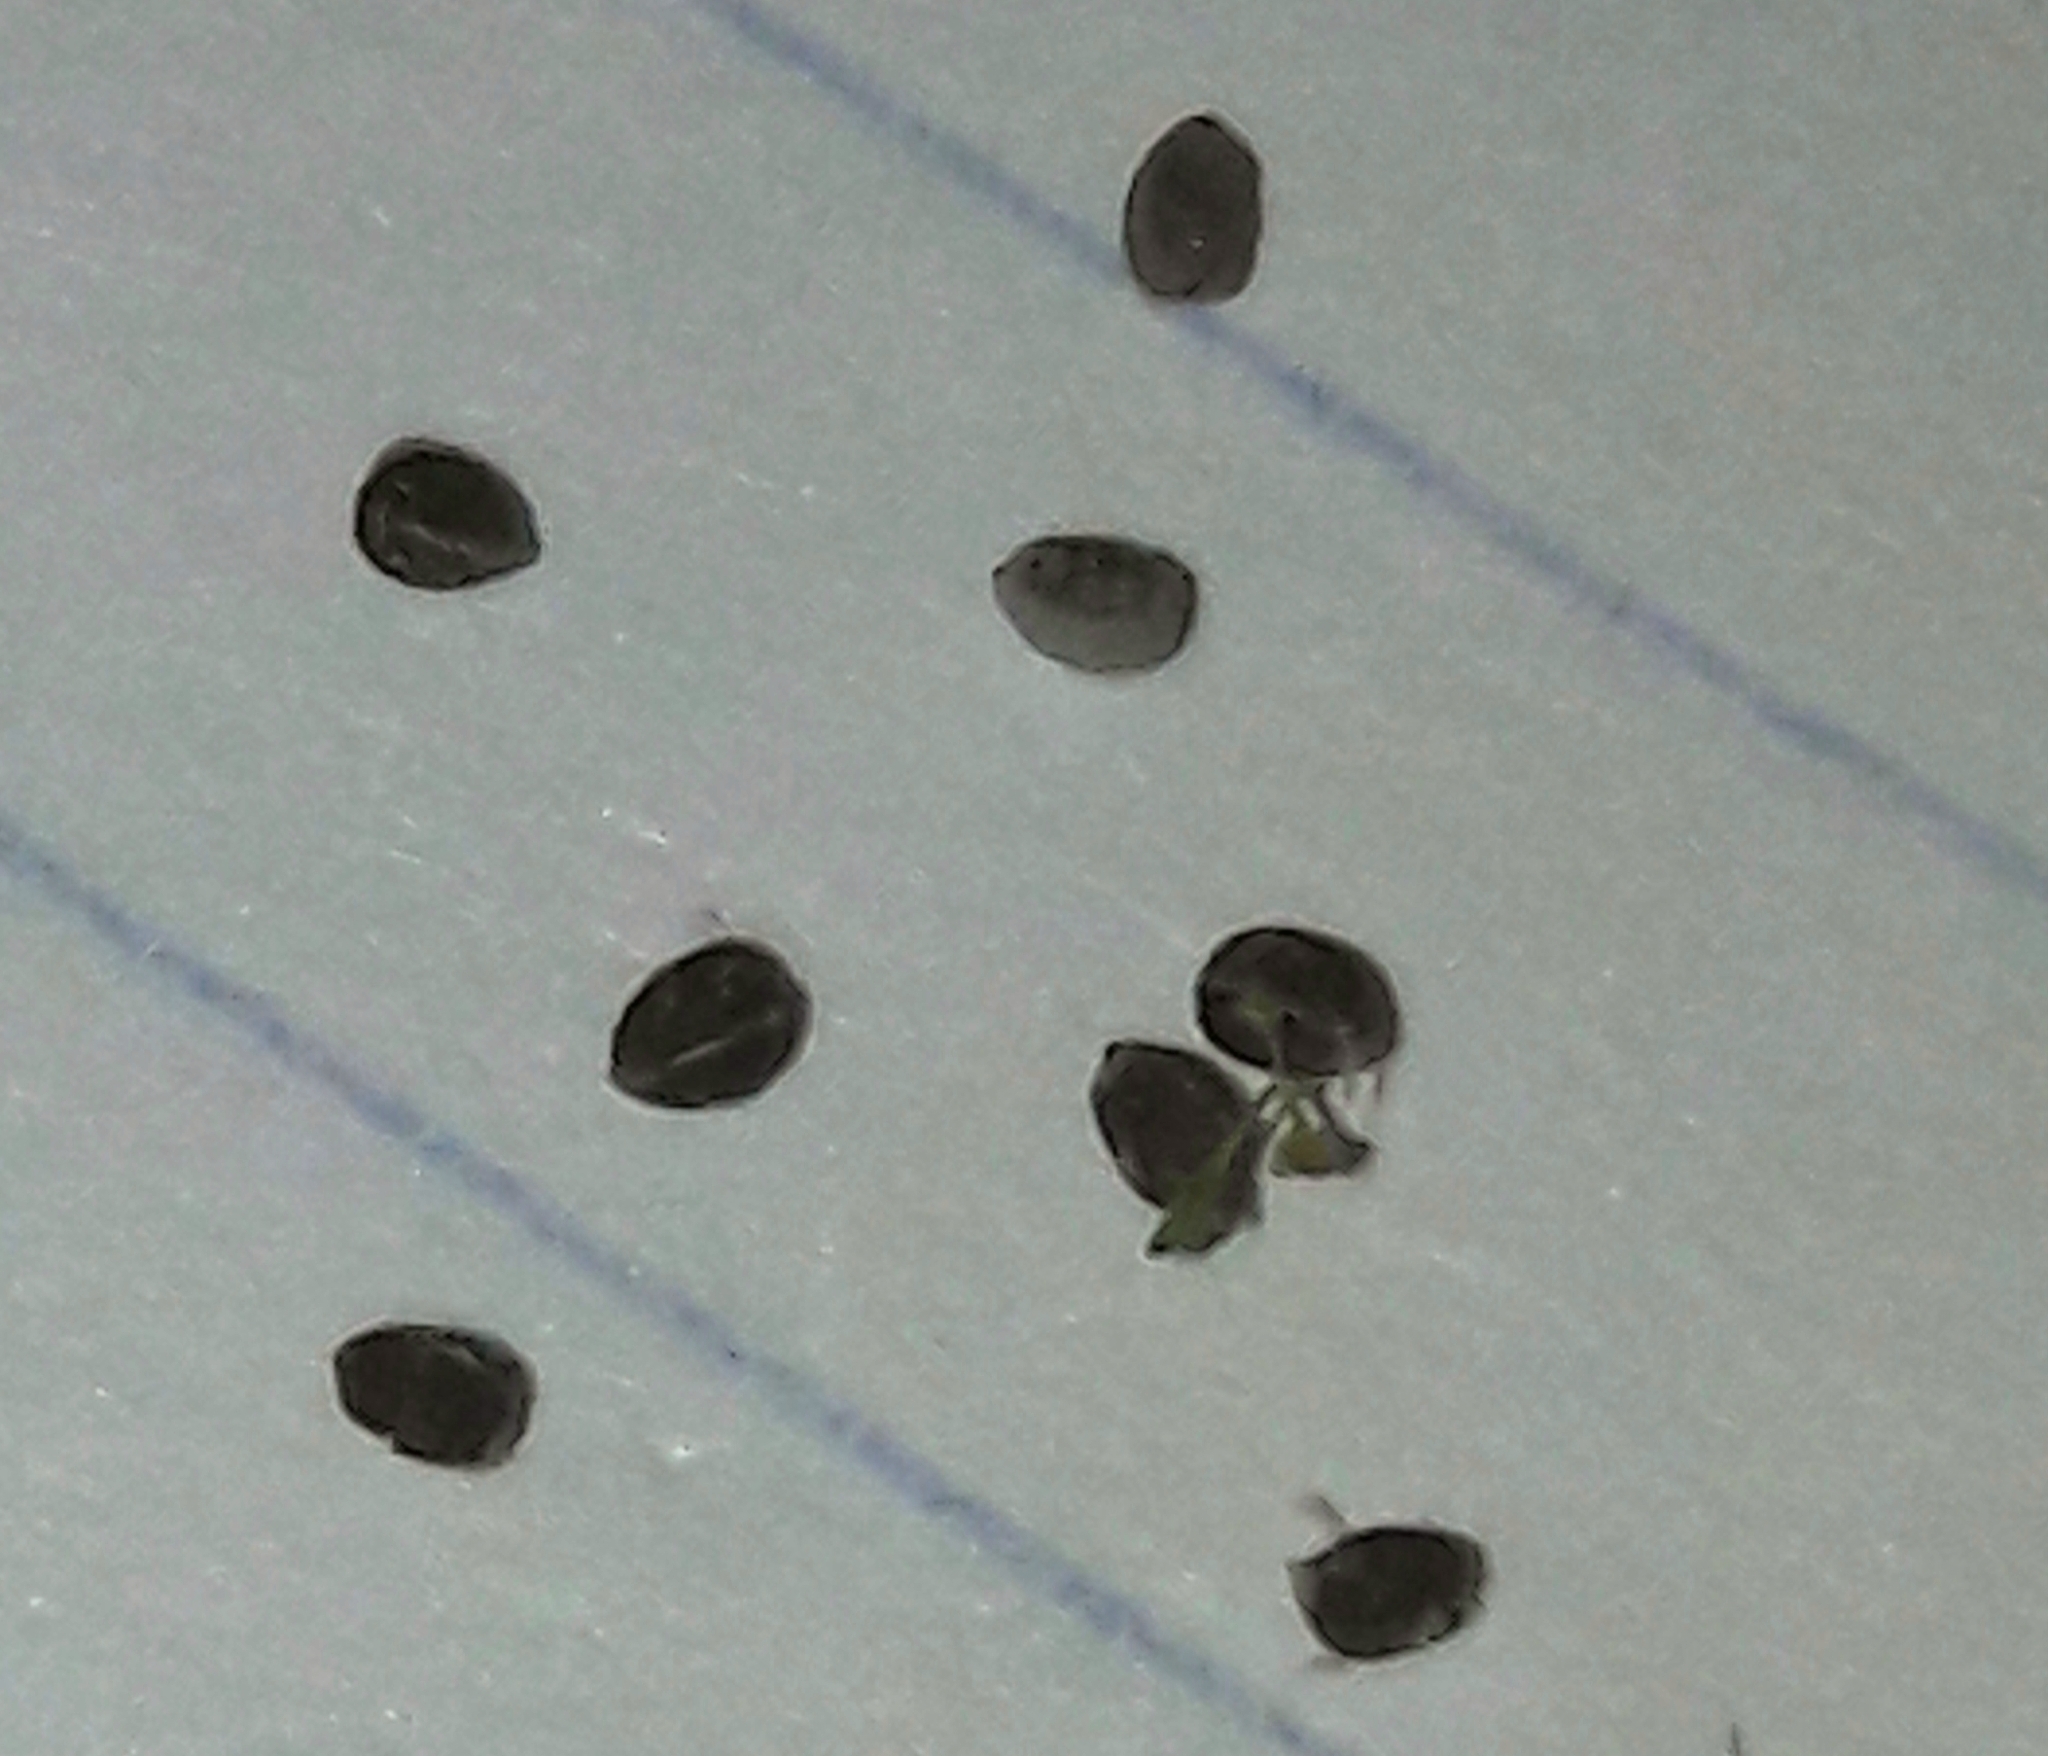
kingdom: Plantae
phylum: Tracheophyta
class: Magnoliopsida
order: Malpighiales
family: Euphorbiaceae
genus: Euphorbia
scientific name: Euphorbia lasiocarpa
